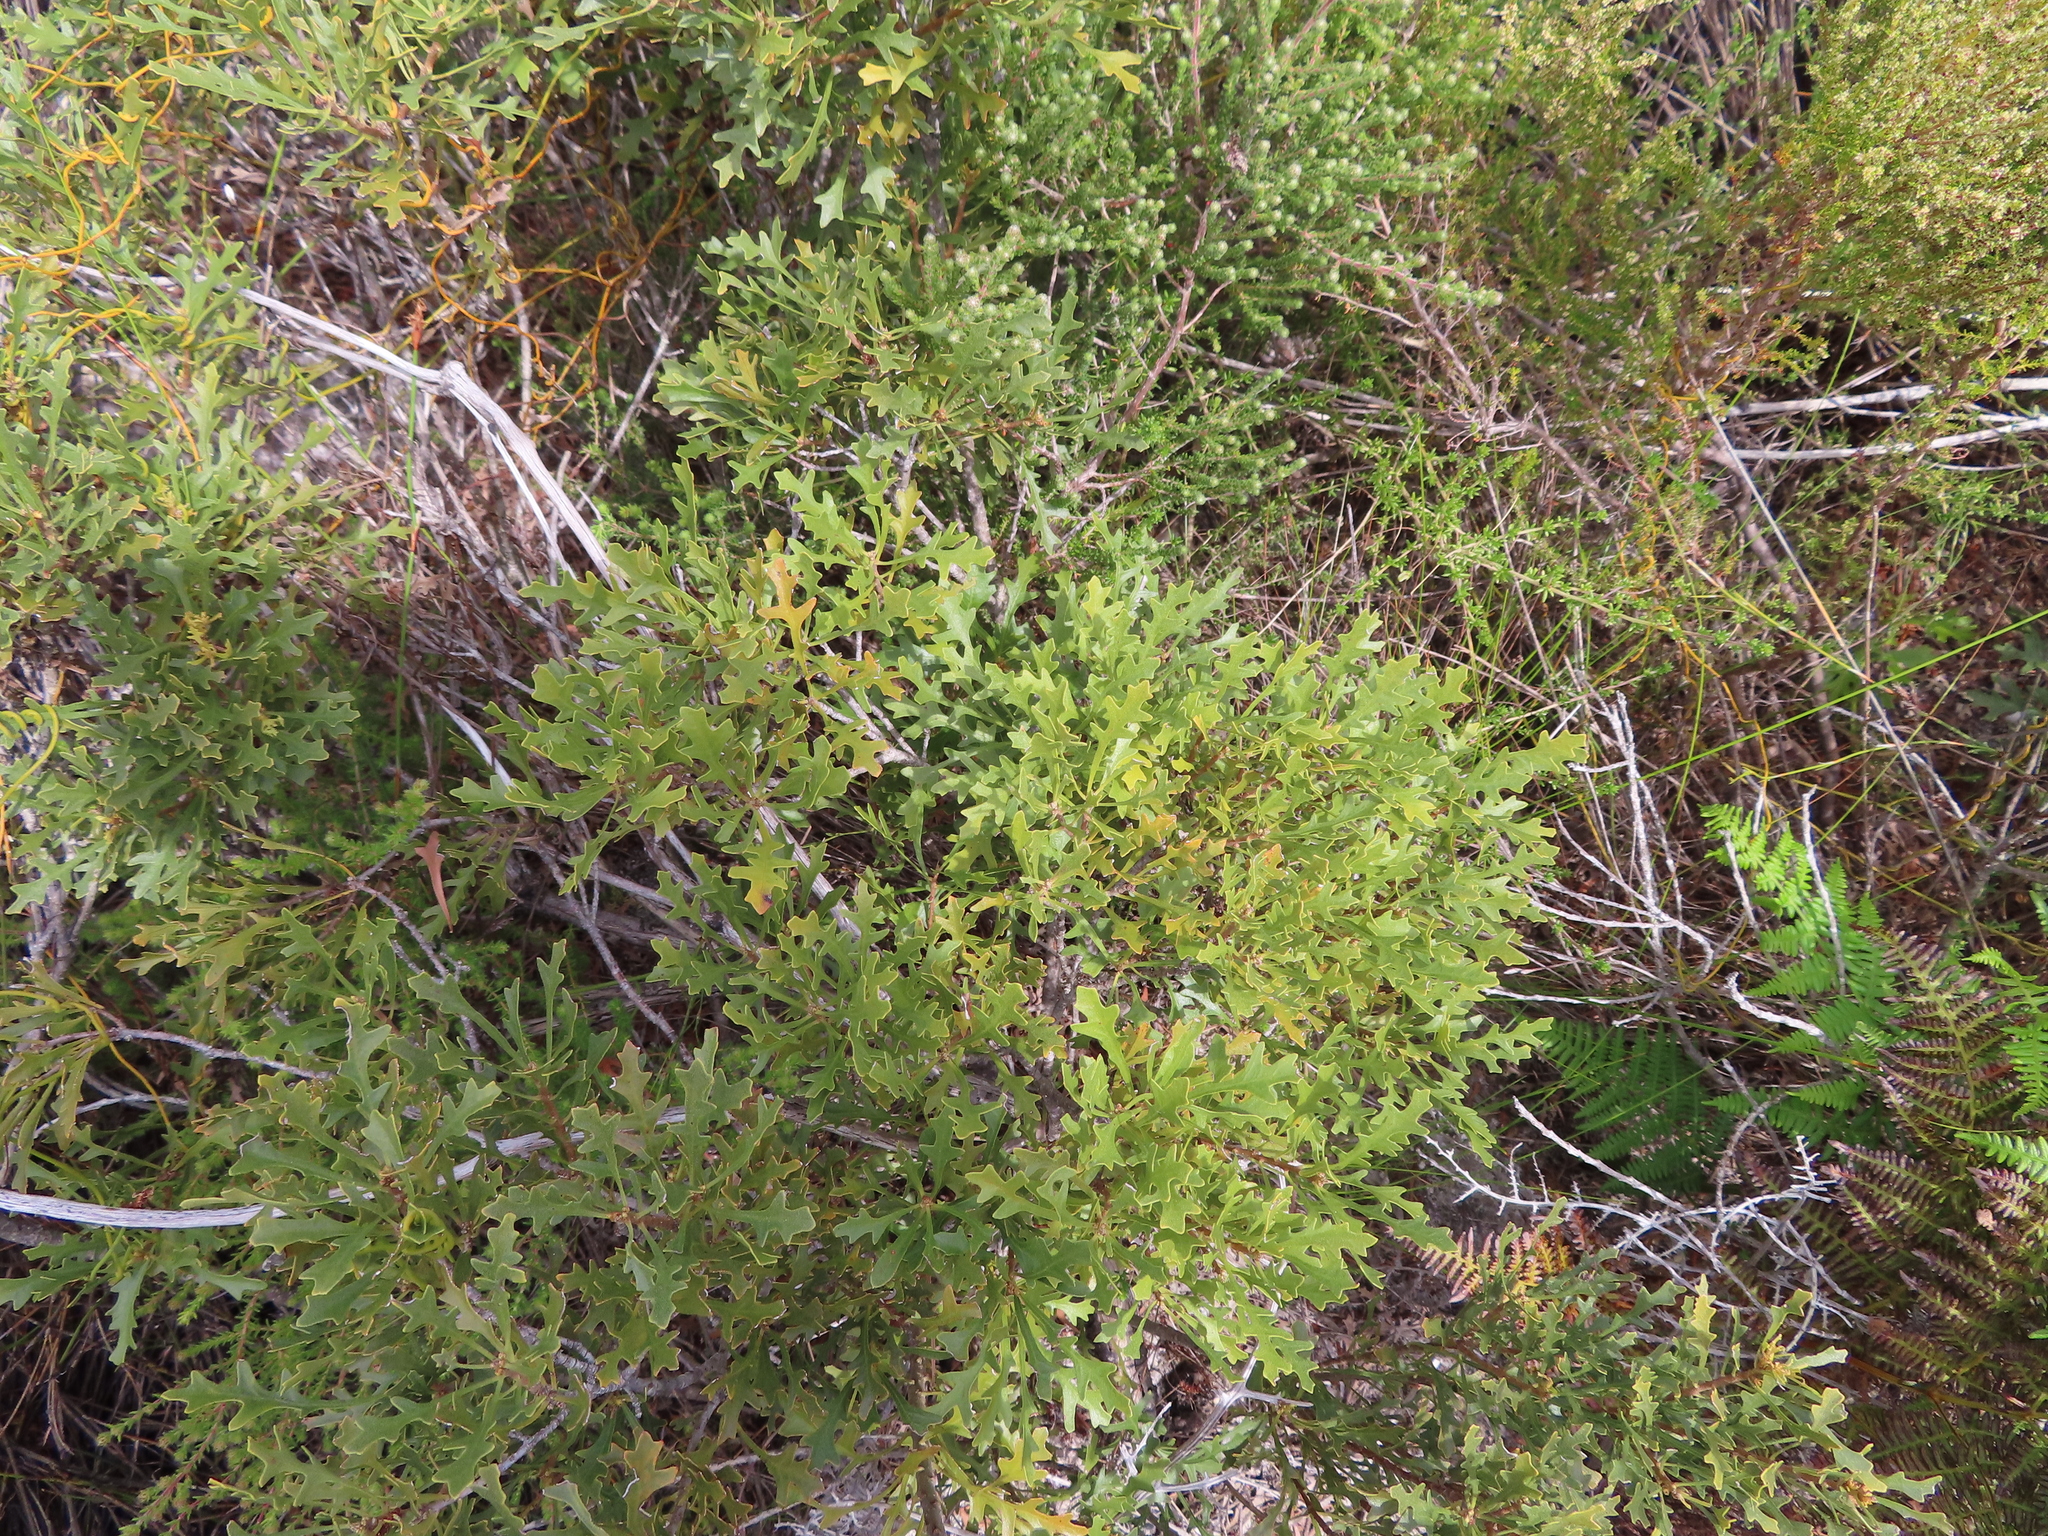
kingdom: Plantae
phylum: Tracheophyta
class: Magnoliopsida
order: Fagales
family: Myricaceae
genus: Morella
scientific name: Morella quercifolia
